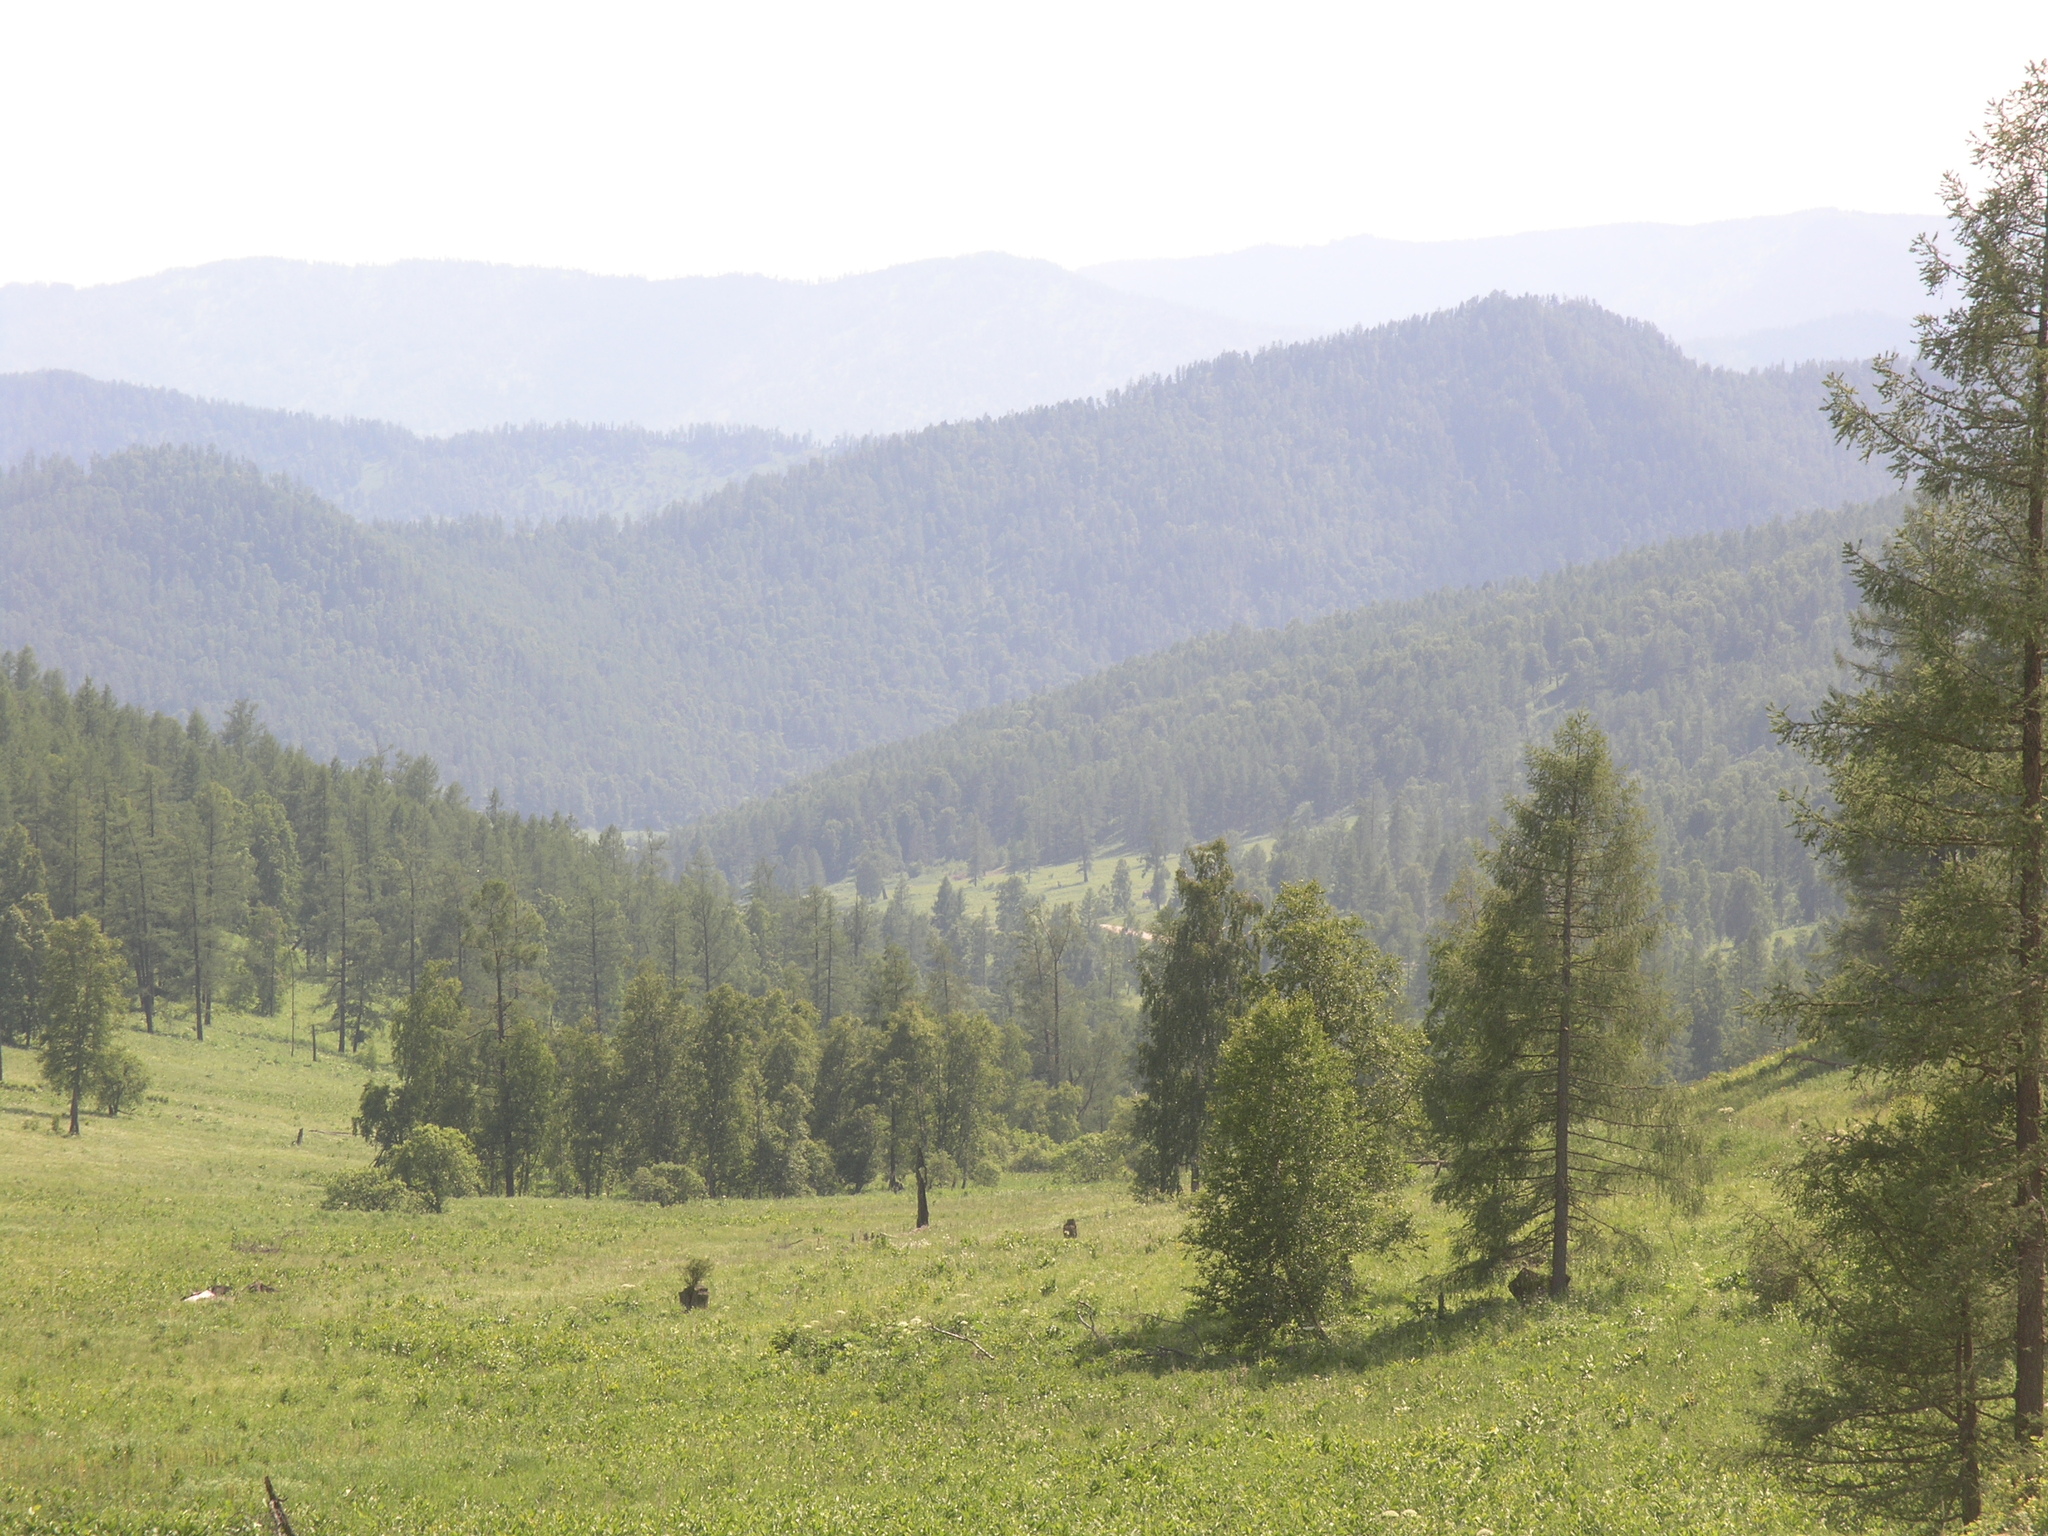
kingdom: Plantae
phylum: Tracheophyta
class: Pinopsida
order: Pinales
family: Pinaceae
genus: Larix
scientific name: Larix sibirica
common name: Siberian larch
